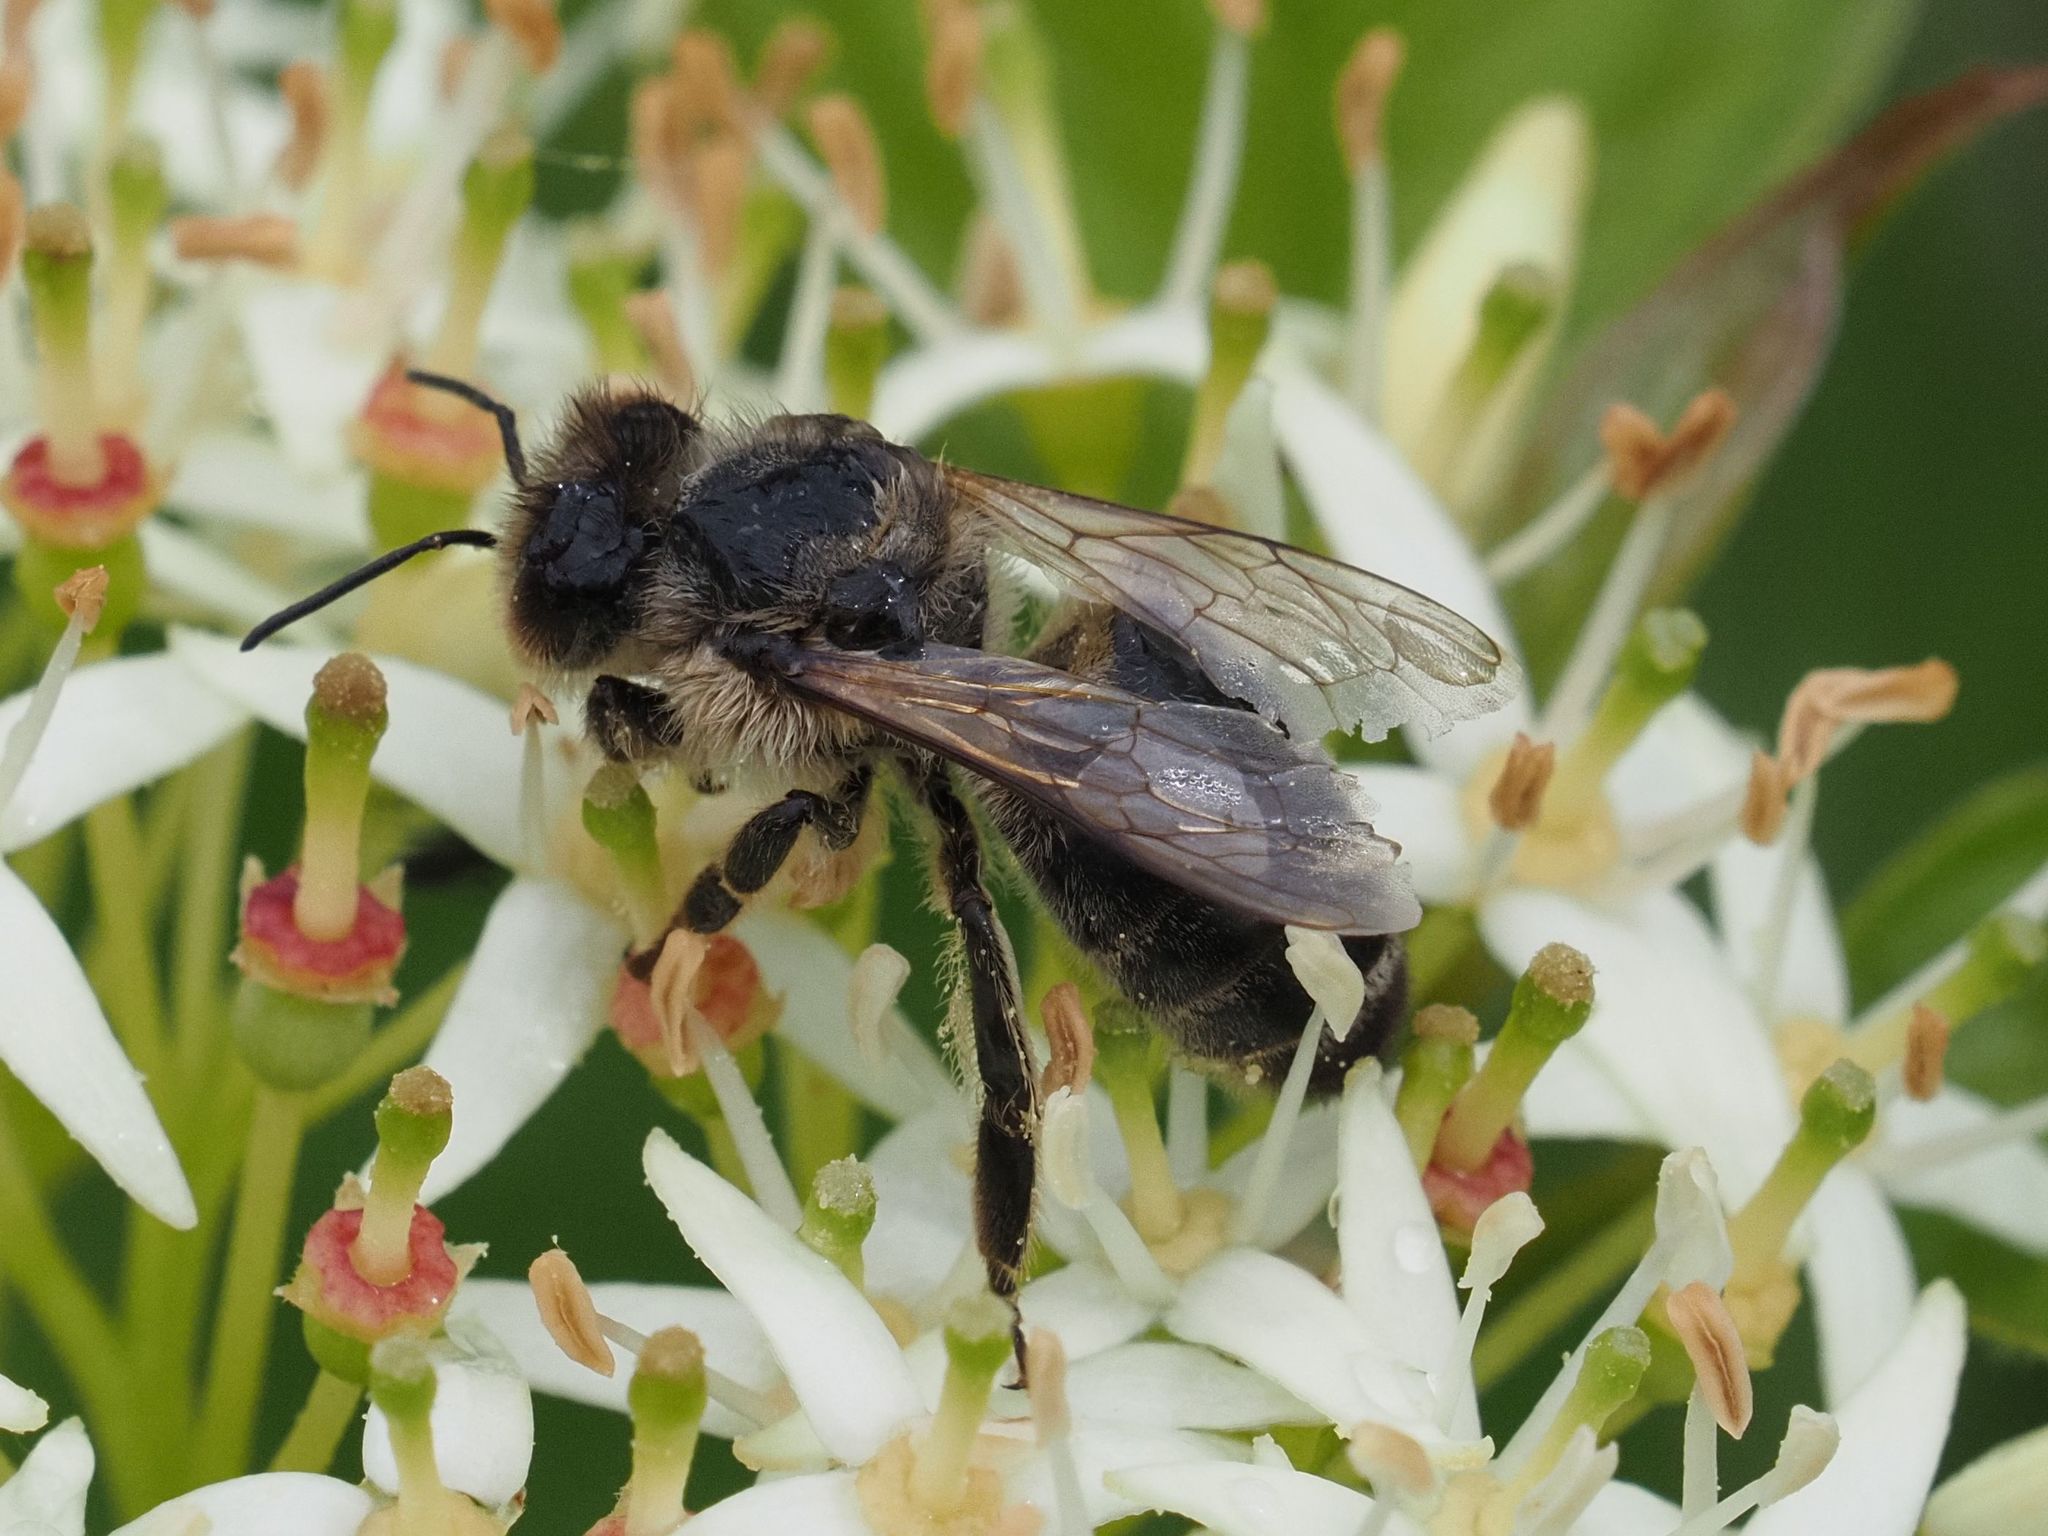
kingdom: Animalia
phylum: Arthropoda
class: Insecta
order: Hymenoptera
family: Apidae
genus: Apis
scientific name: Apis mellifera
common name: Honey bee
